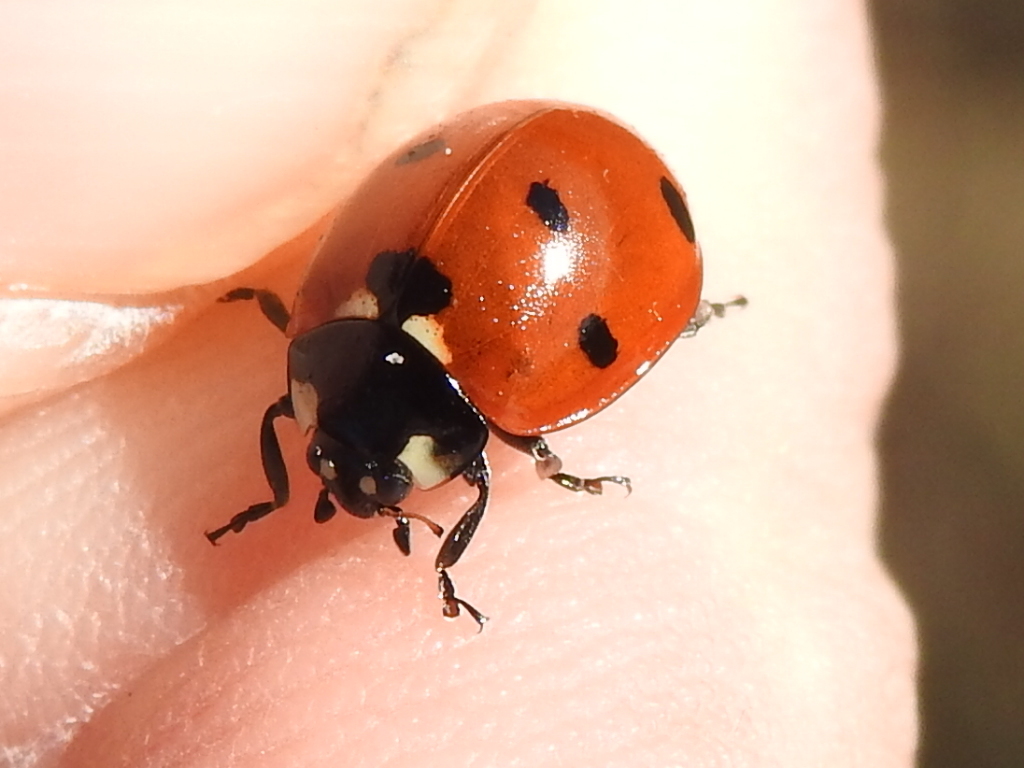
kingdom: Animalia
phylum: Arthropoda
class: Insecta
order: Coleoptera
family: Coccinellidae
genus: Coccinella
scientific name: Coccinella septempunctata
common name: Sevenspotted lady beetle
